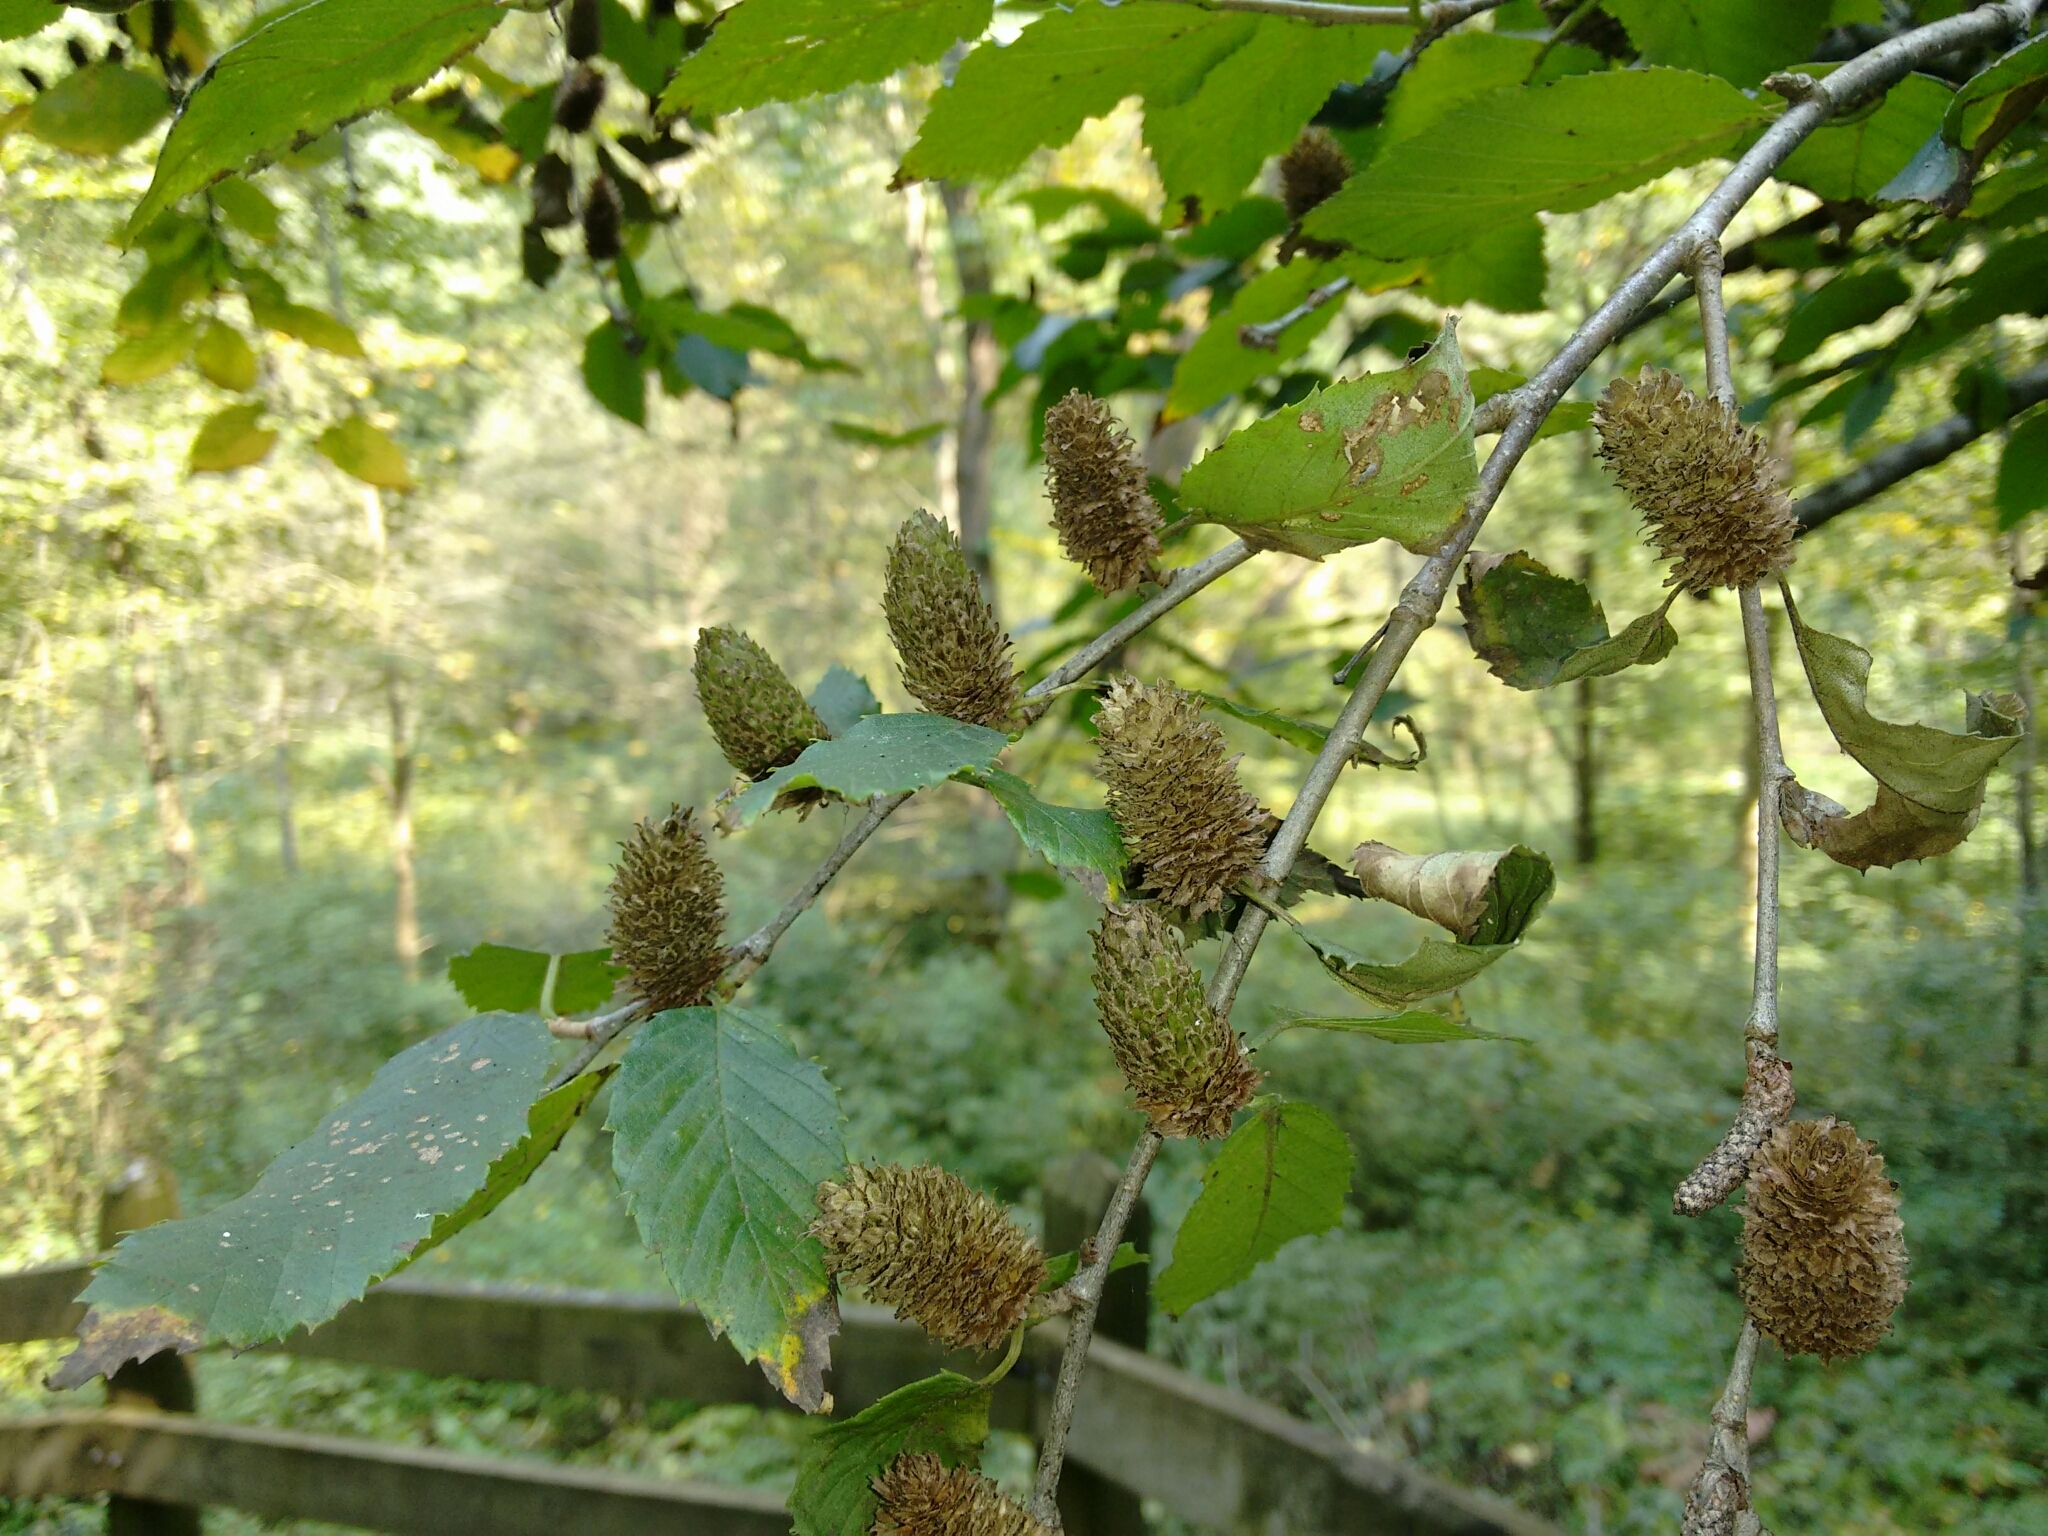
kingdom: Plantae
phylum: Tracheophyta
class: Magnoliopsida
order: Fagales
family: Betulaceae
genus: Betula
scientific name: Betula alleghaniensis
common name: Yellow birch
